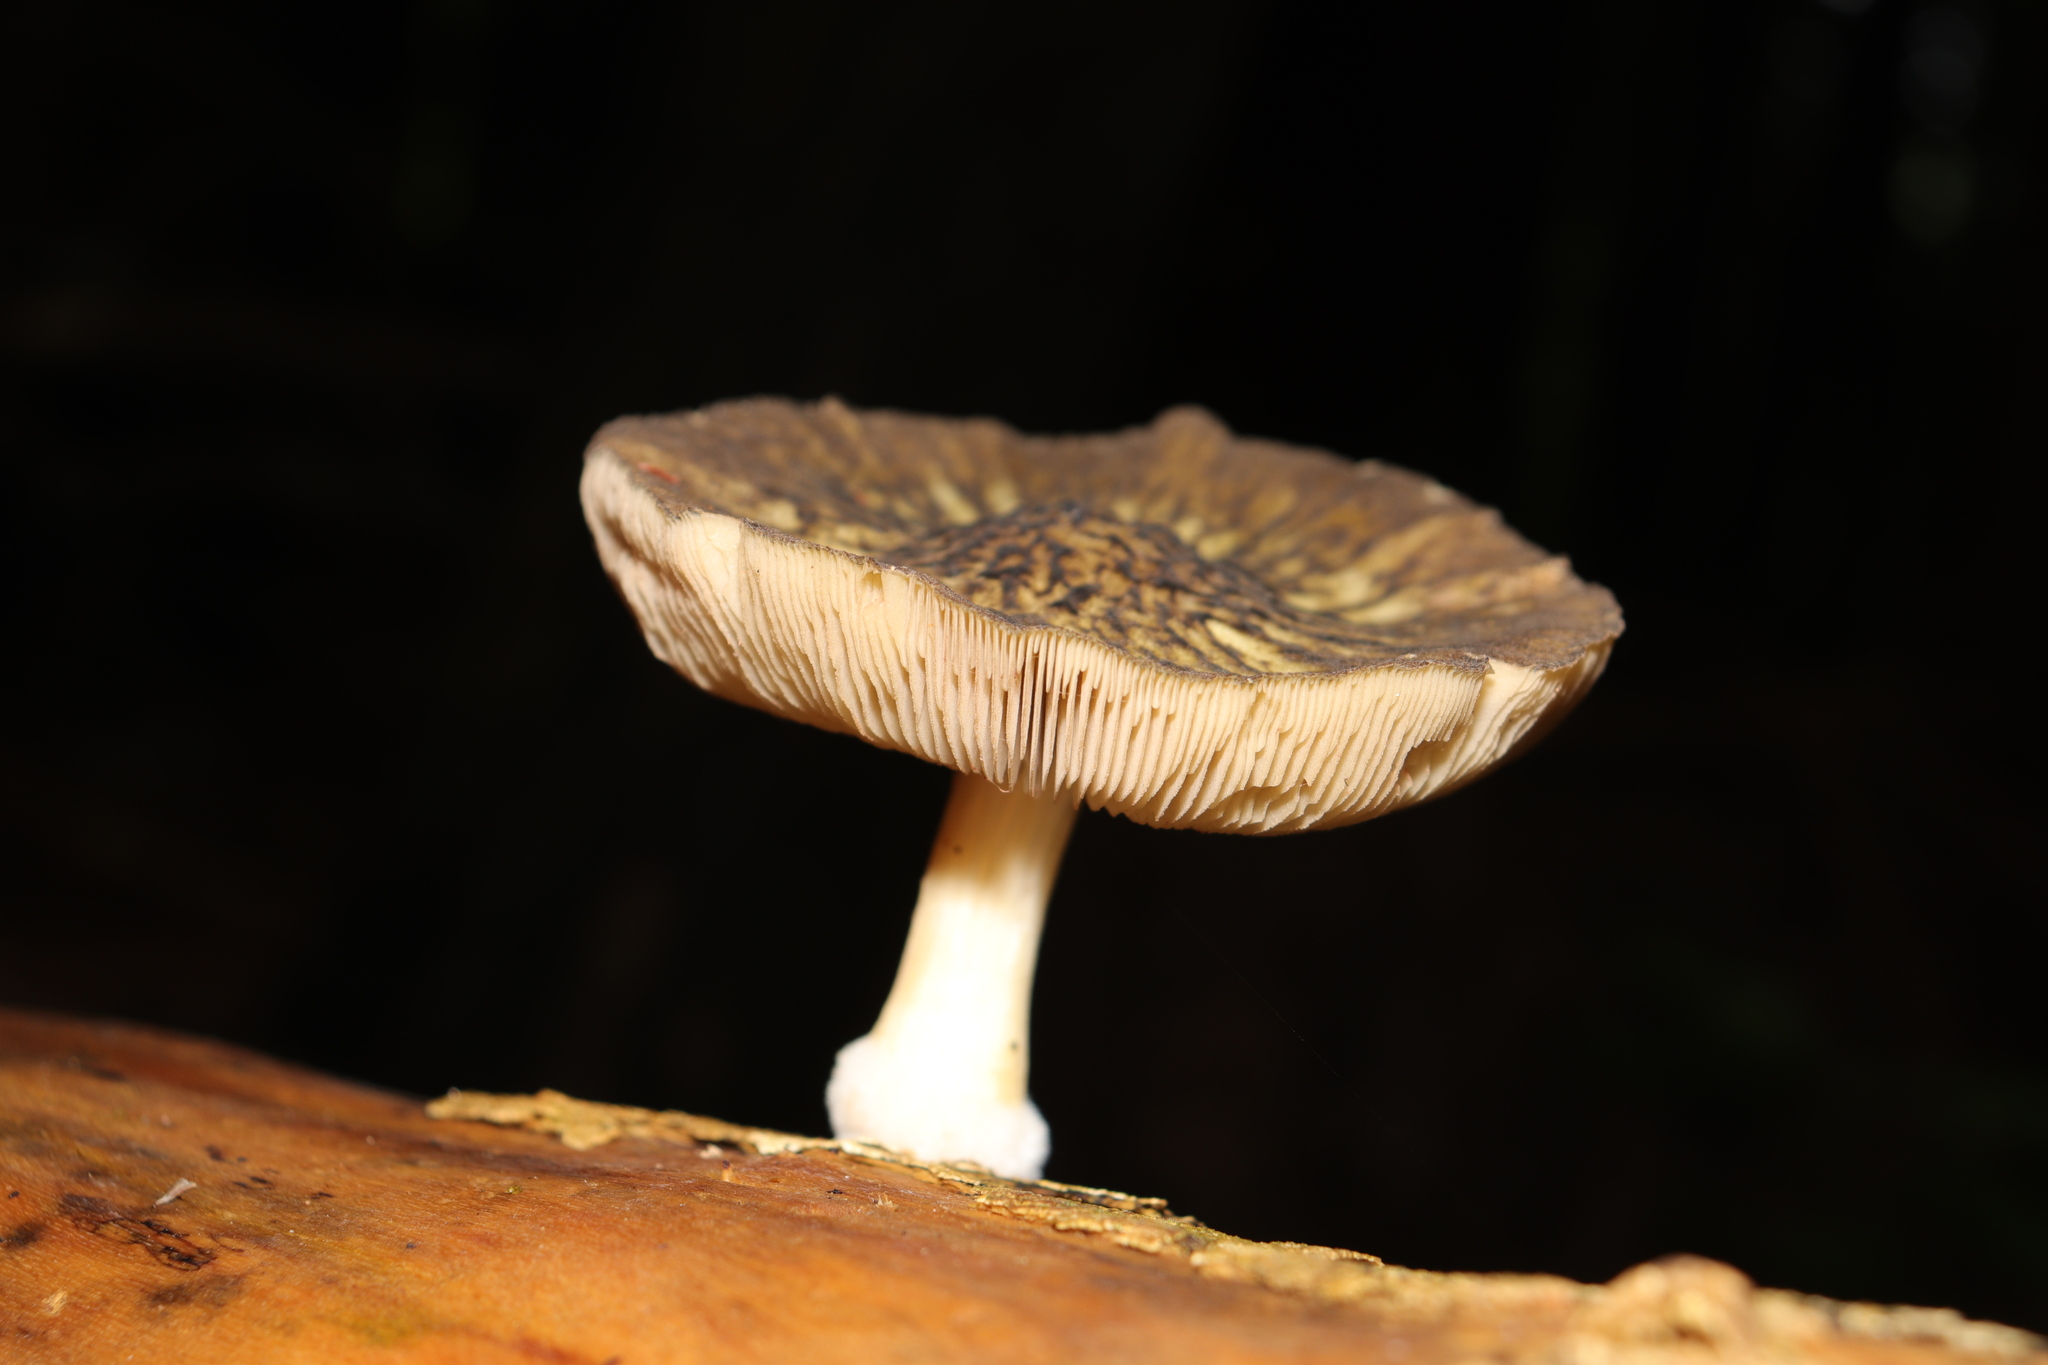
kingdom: Fungi
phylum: Basidiomycota
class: Agaricomycetes
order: Agaricales
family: Pluteaceae
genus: Pluteus
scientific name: Pluteus readiarum
